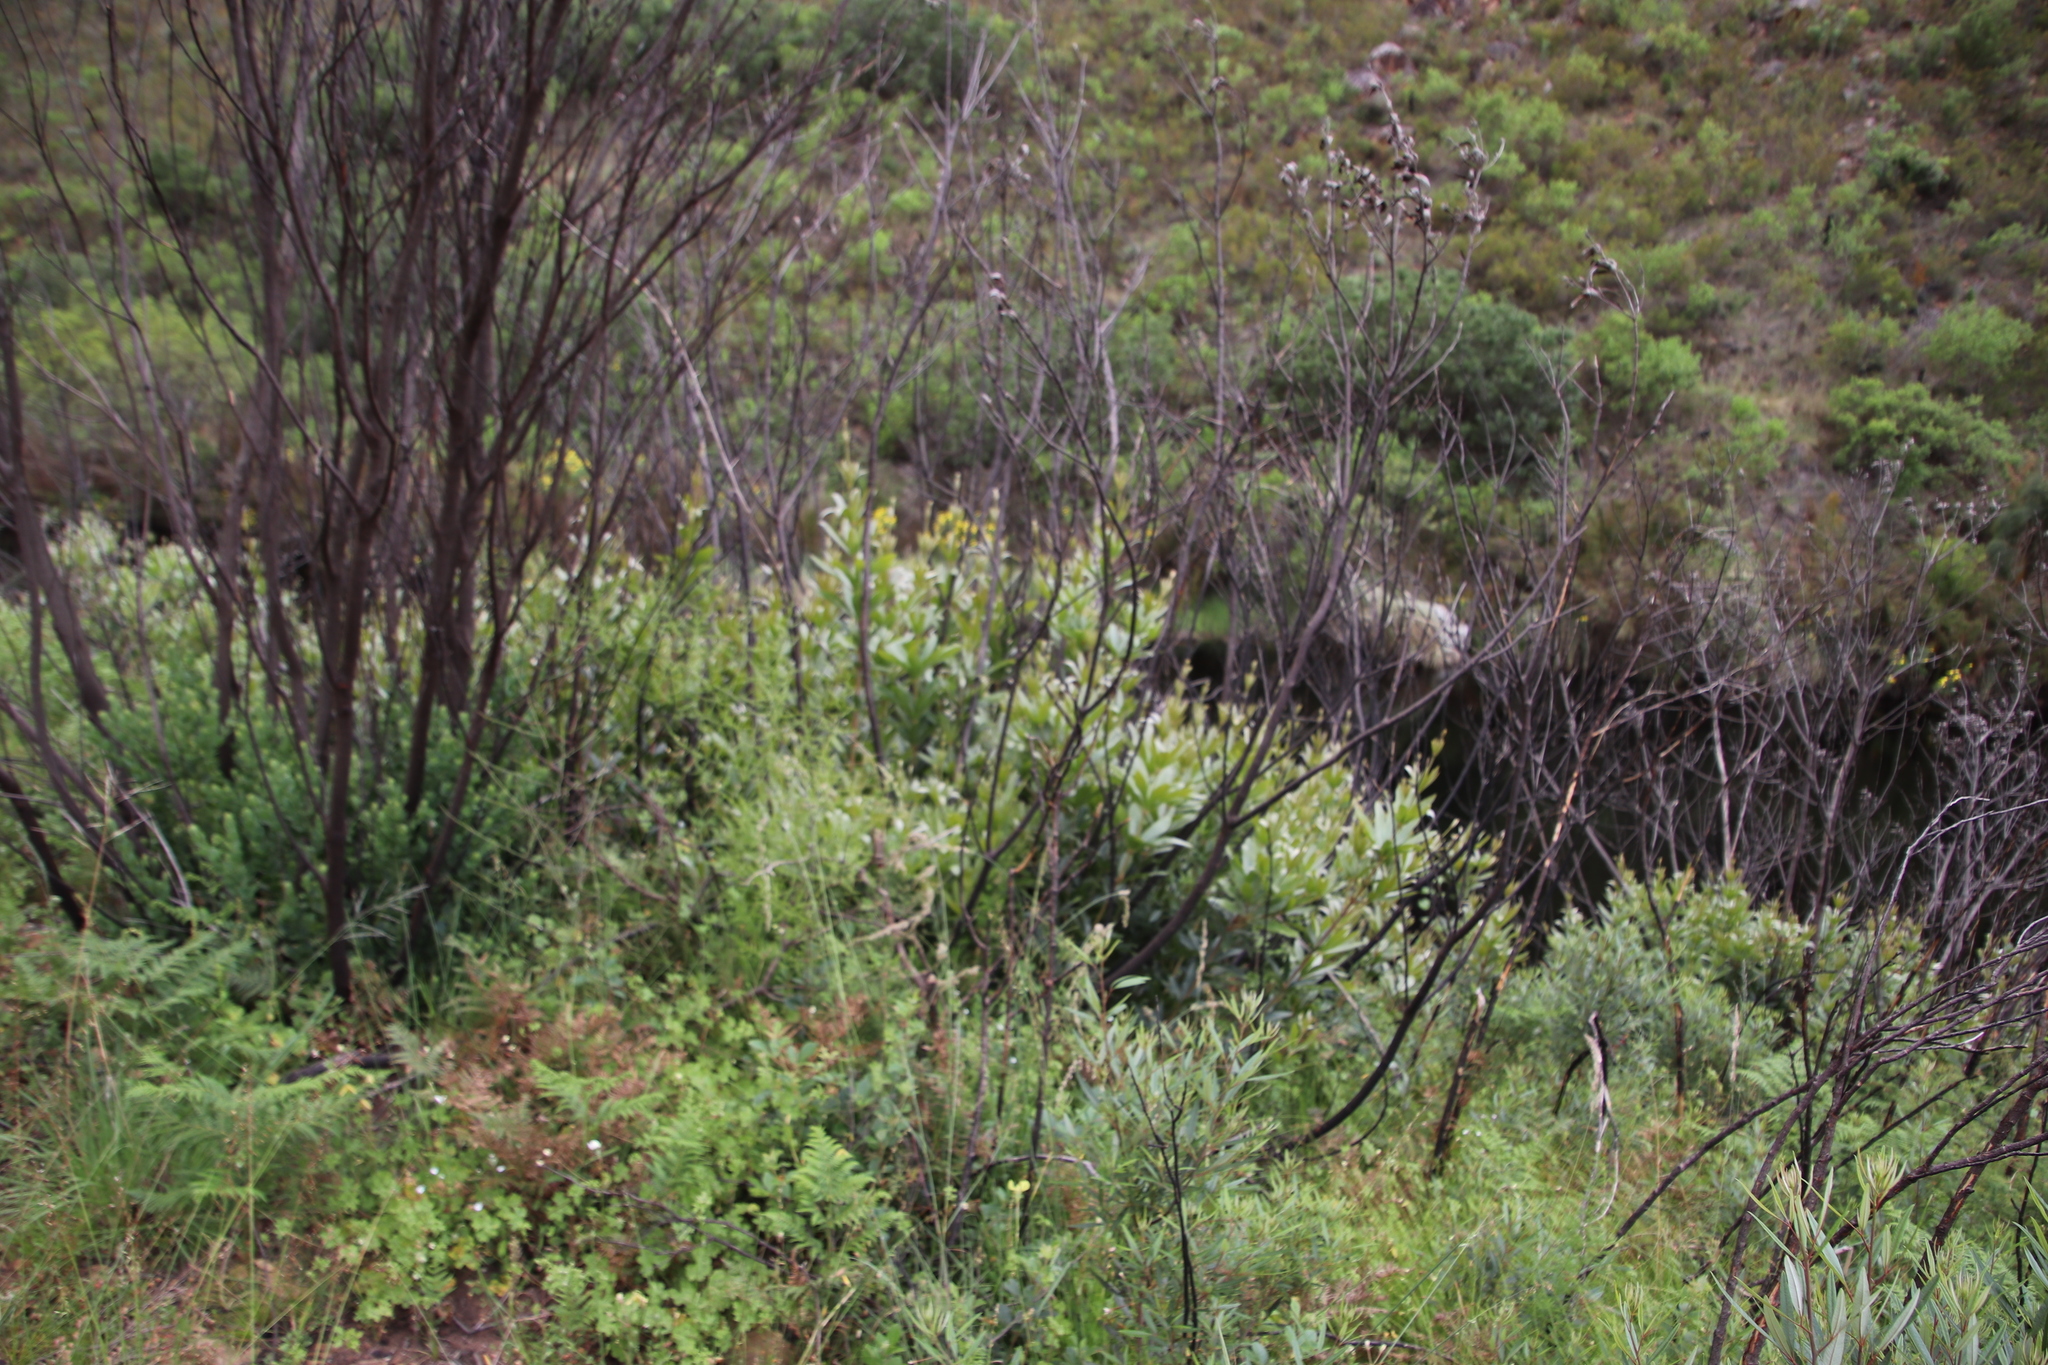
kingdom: Plantae
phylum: Tracheophyta
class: Magnoliopsida
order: Proteales
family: Proteaceae
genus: Brabejum
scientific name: Brabejum stellatifolium
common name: Wild almond
